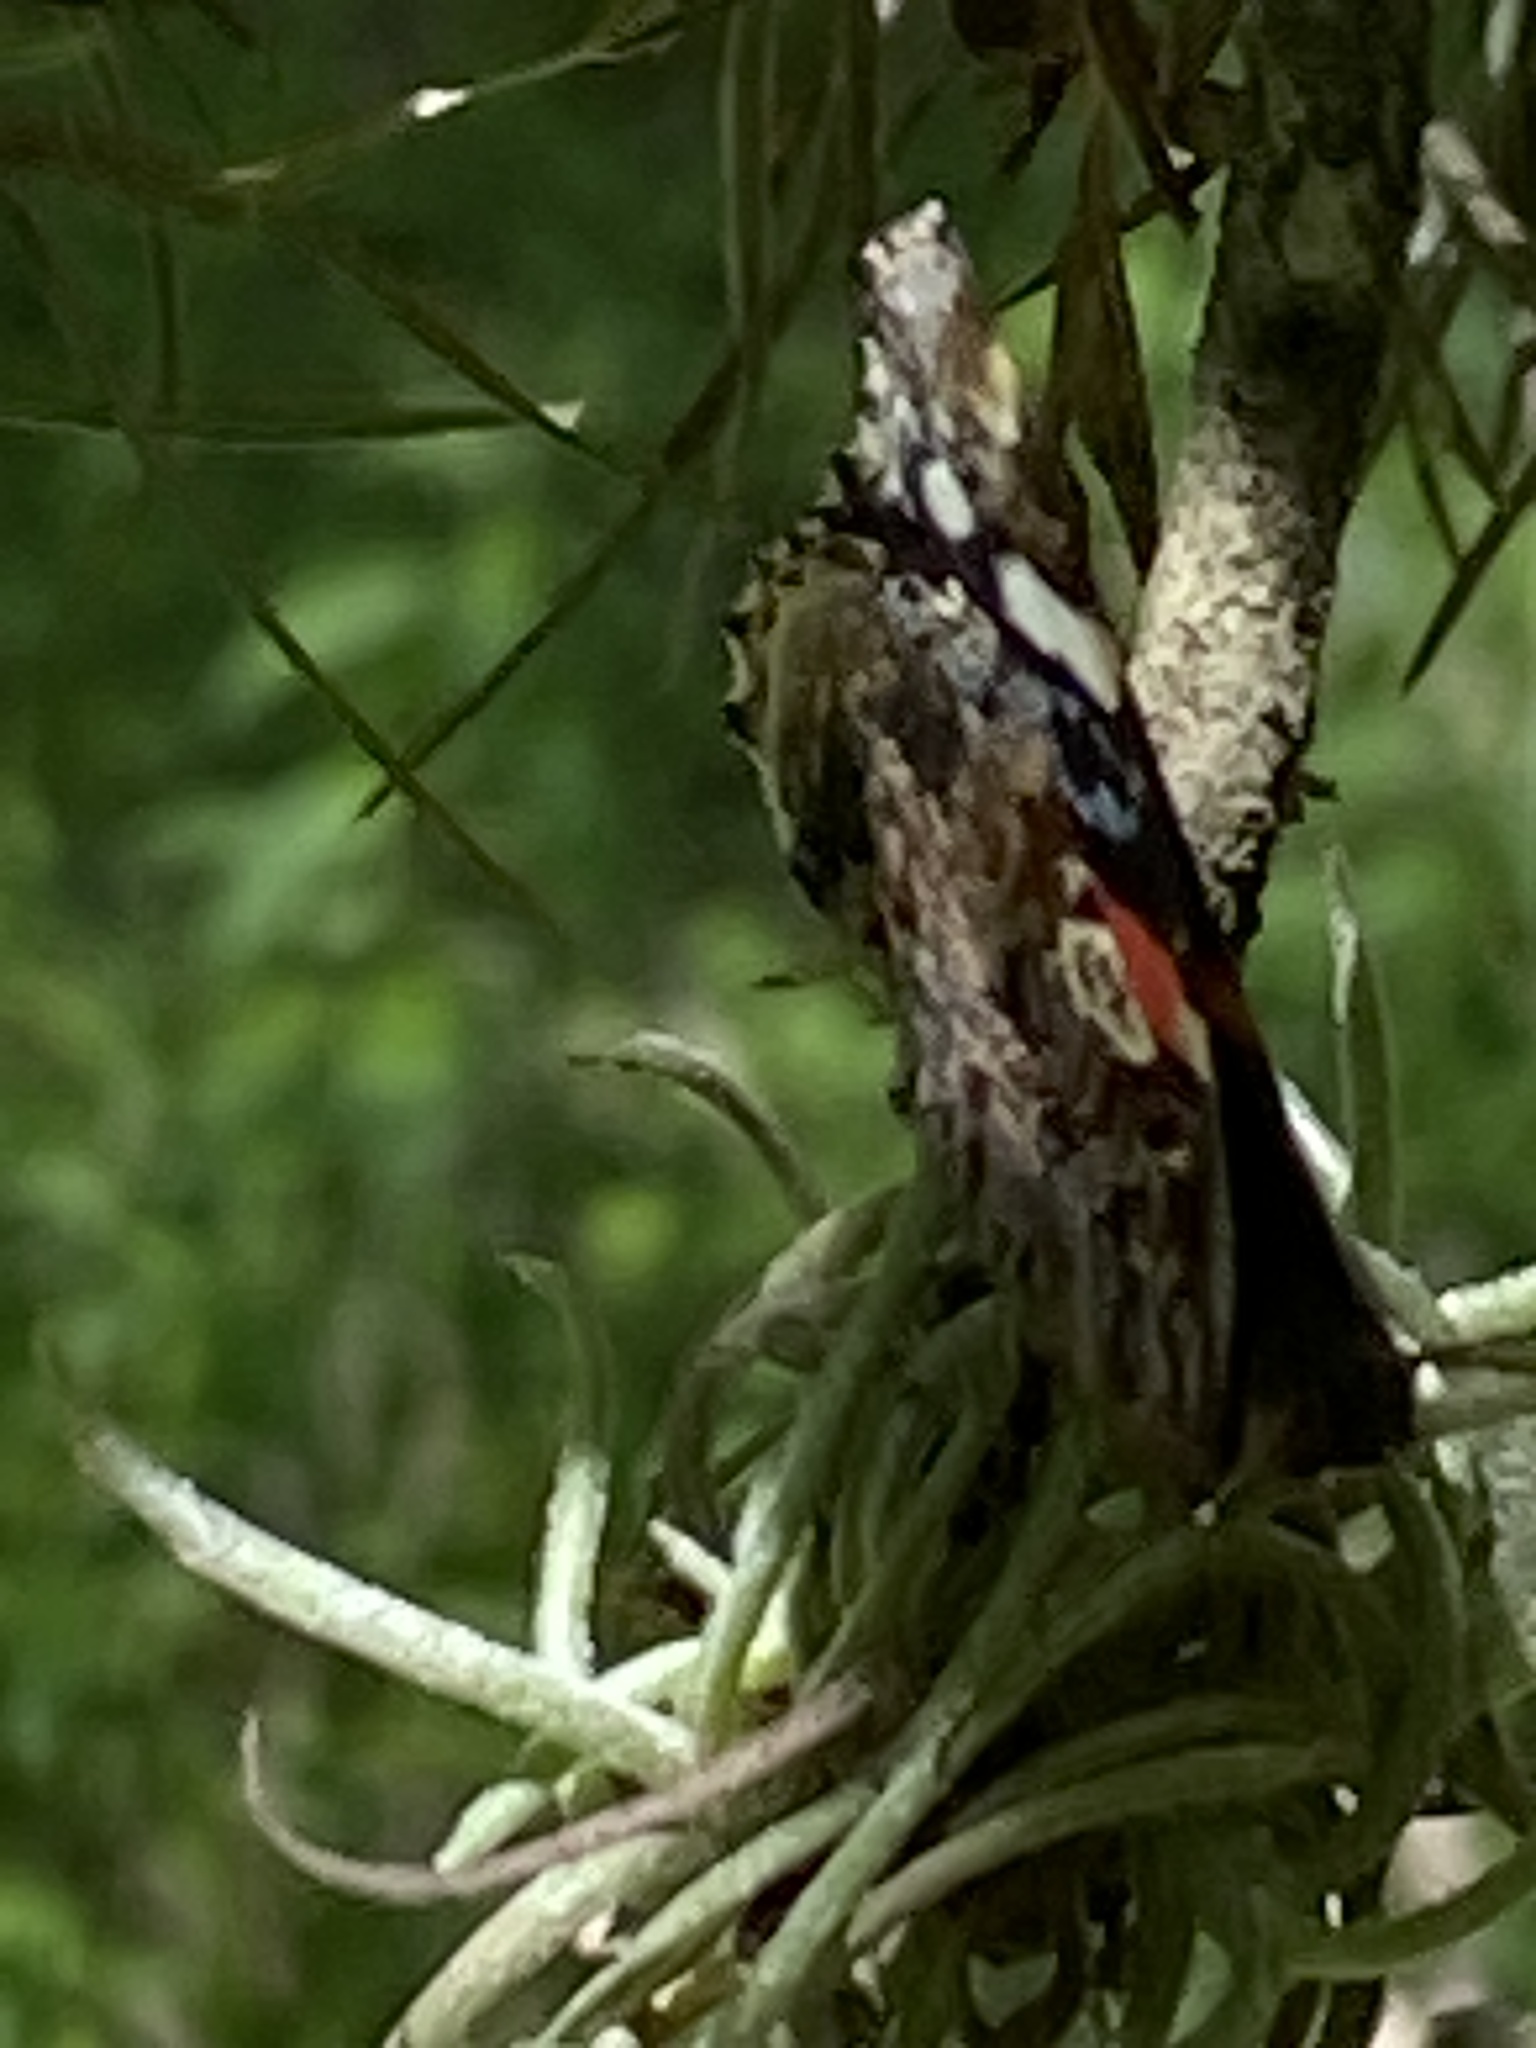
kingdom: Animalia
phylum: Arthropoda
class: Insecta
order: Lepidoptera
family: Nymphalidae
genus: Vanessa
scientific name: Vanessa atalanta
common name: Red admiral
